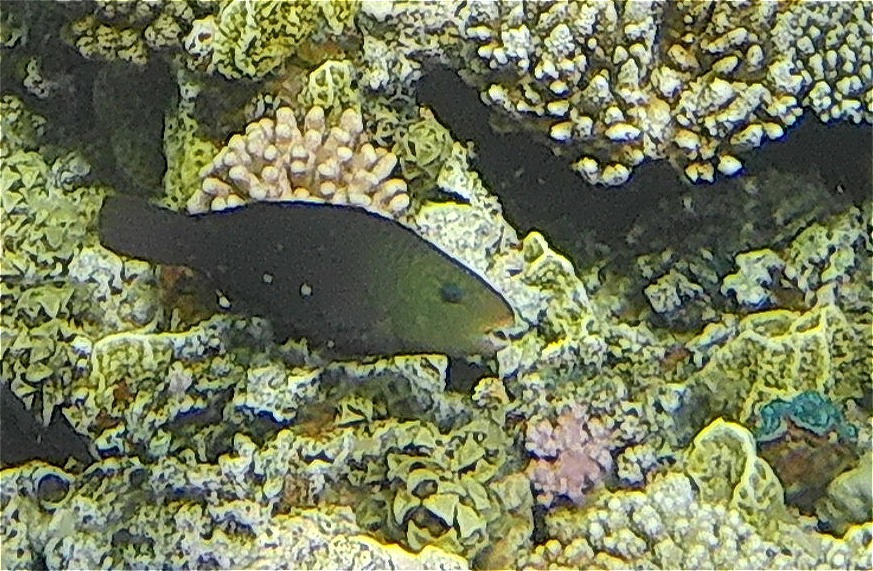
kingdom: Animalia
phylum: Chordata
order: Perciformes
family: Scaridae
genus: Chlorurus
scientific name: Chlorurus sordidus
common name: Bullethead parrotfish
